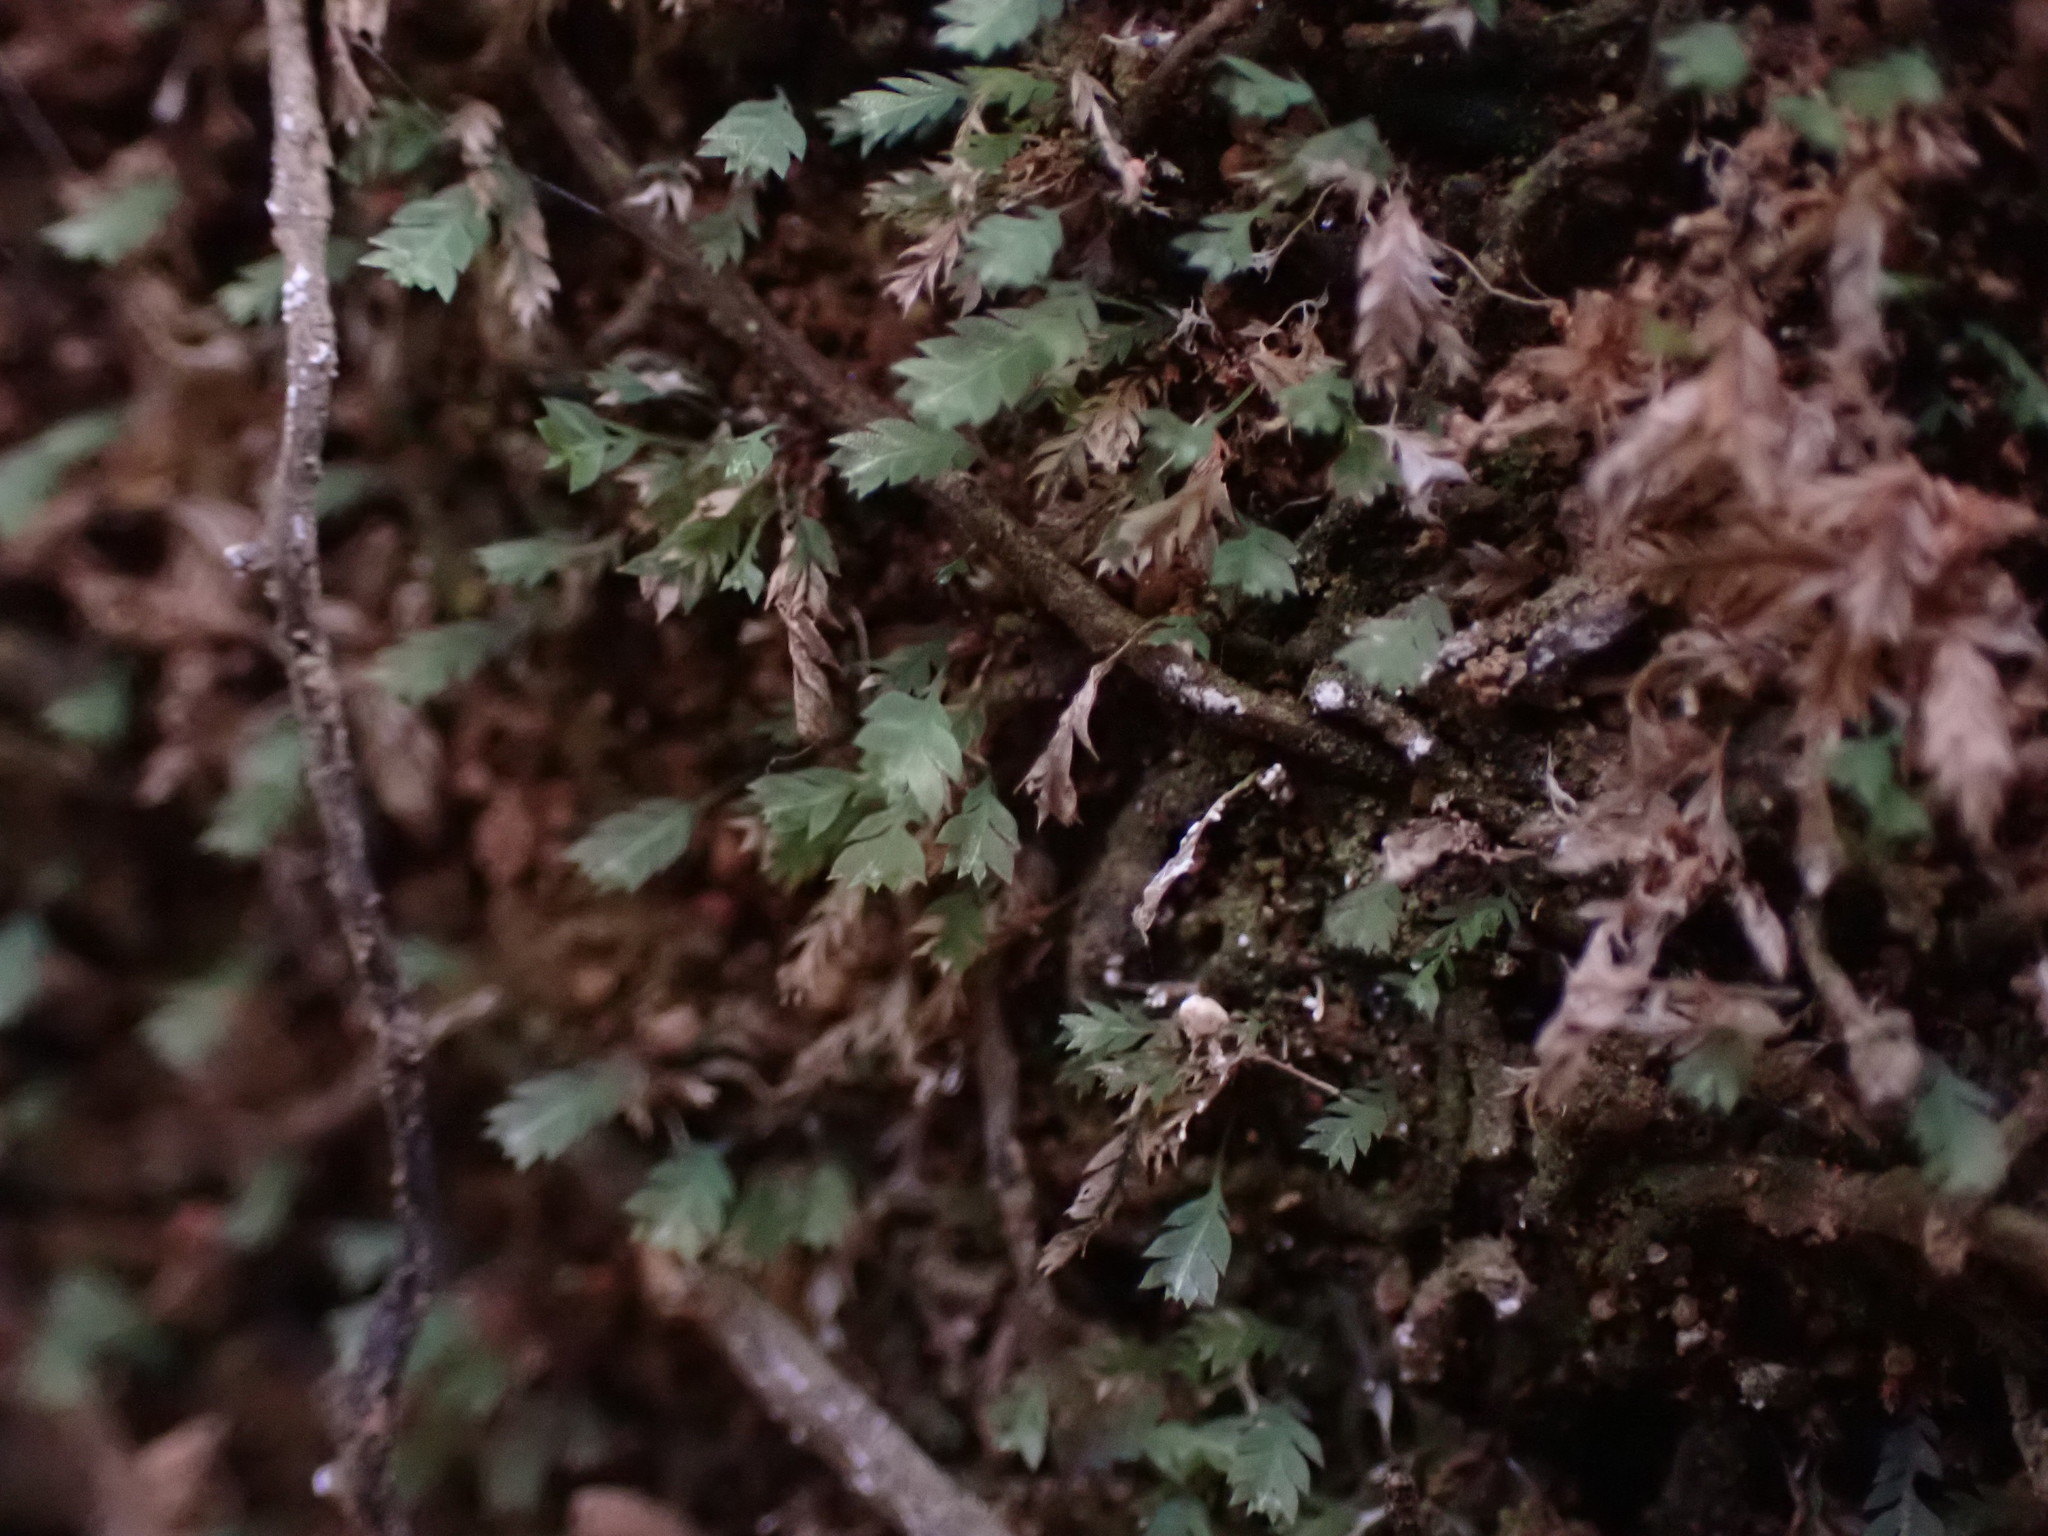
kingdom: Plantae
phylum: Bryophyta
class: Bryopsida
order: Dicranales
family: Schistostegaceae
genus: Schistostega
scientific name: Schistostega pennata
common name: Luminous moss
